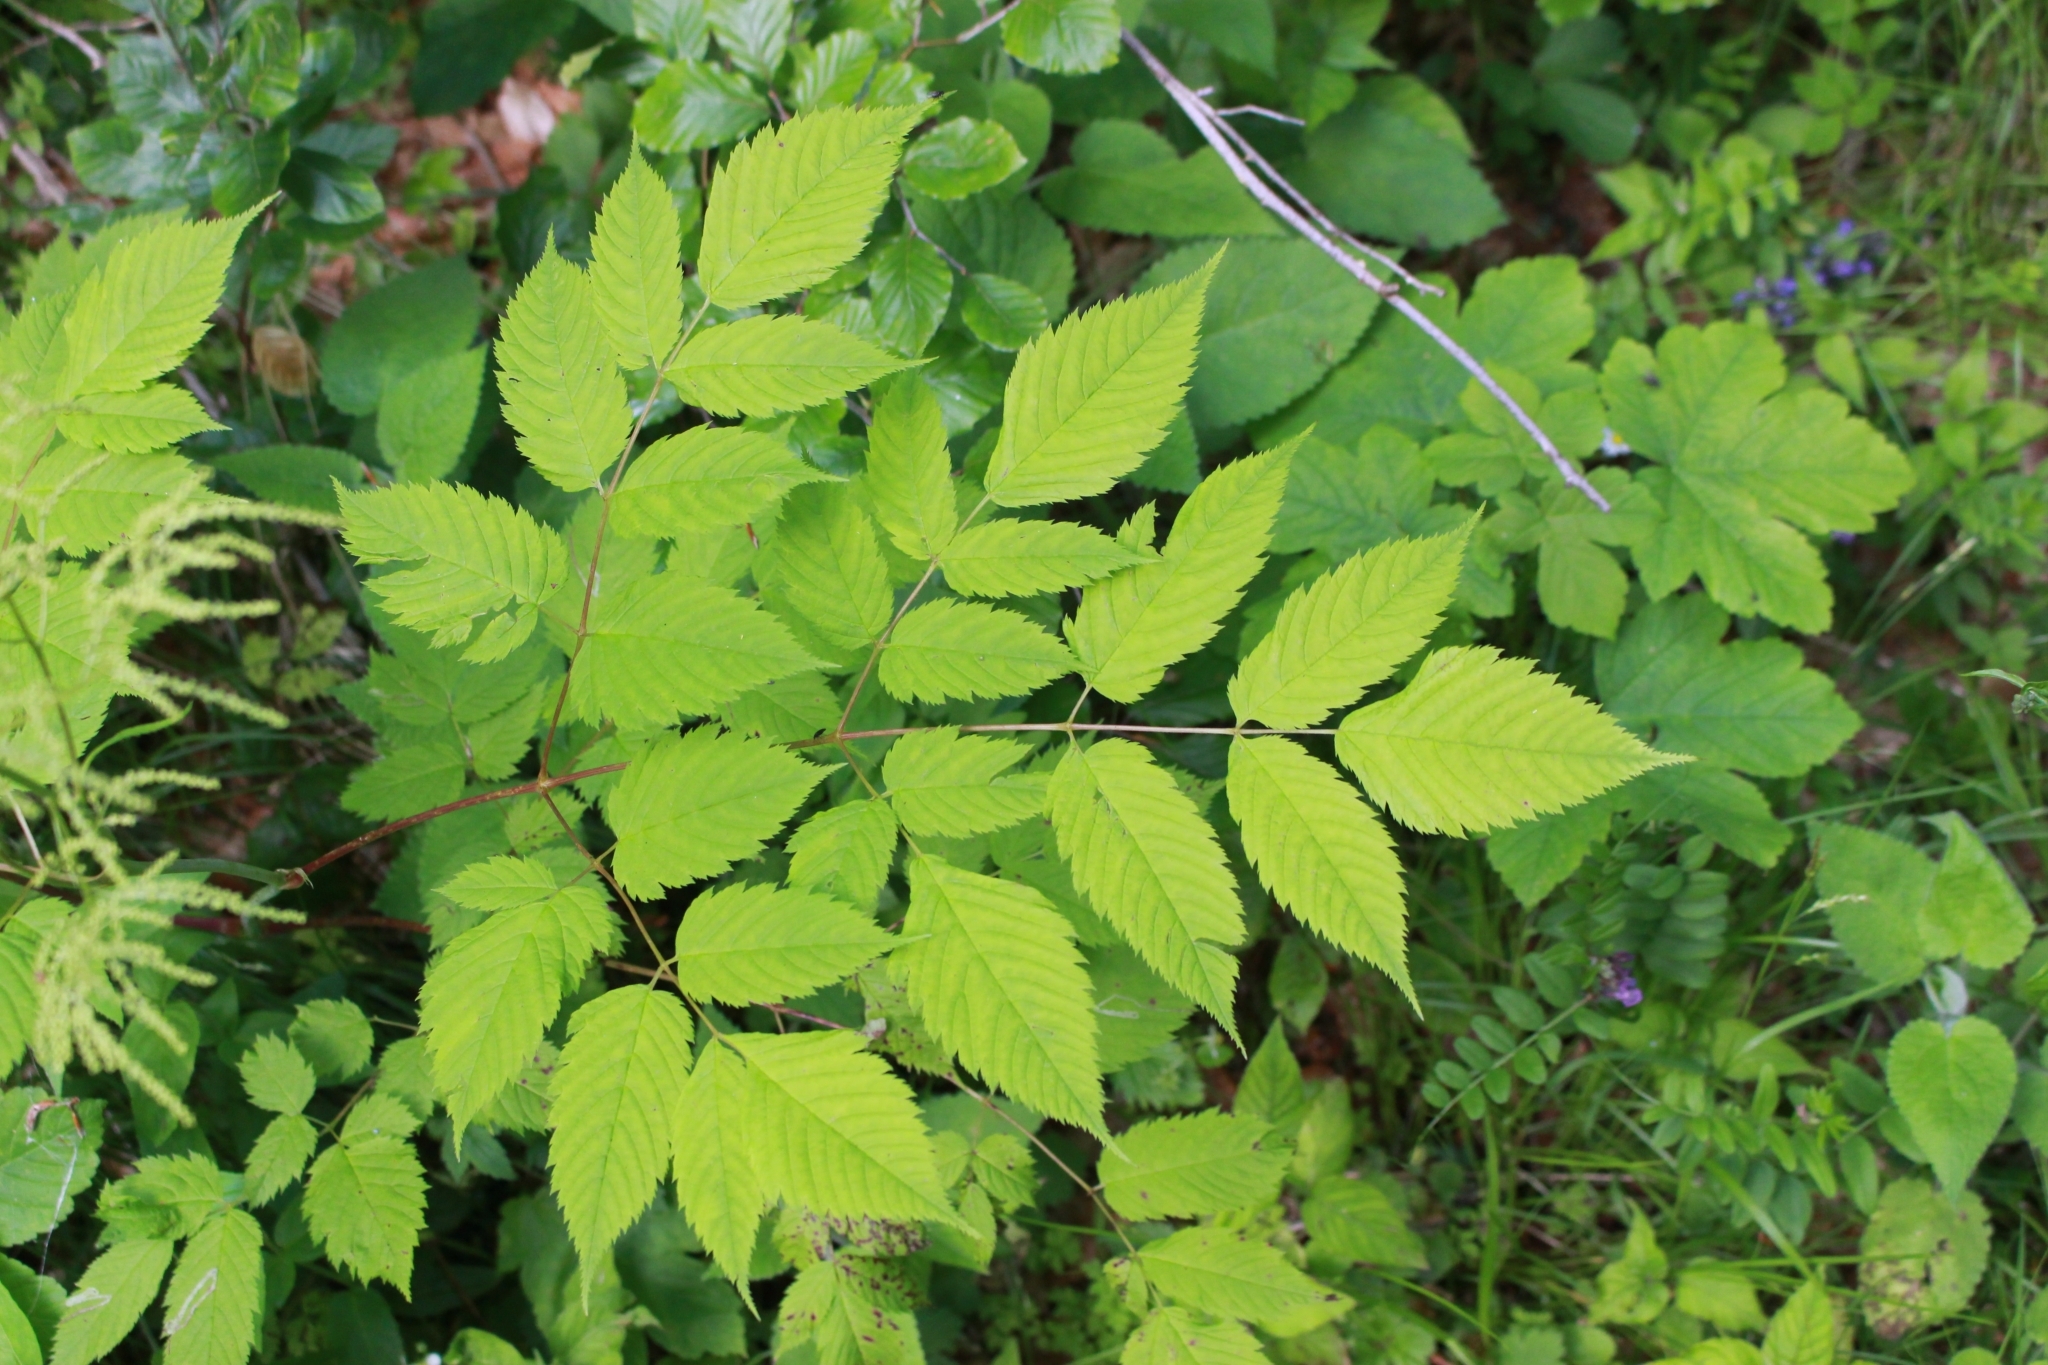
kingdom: Plantae
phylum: Tracheophyta
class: Magnoliopsida
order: Rosales
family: Rosaceae
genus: Aruncus
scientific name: Aruncus dioicus
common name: Buck's-beard
